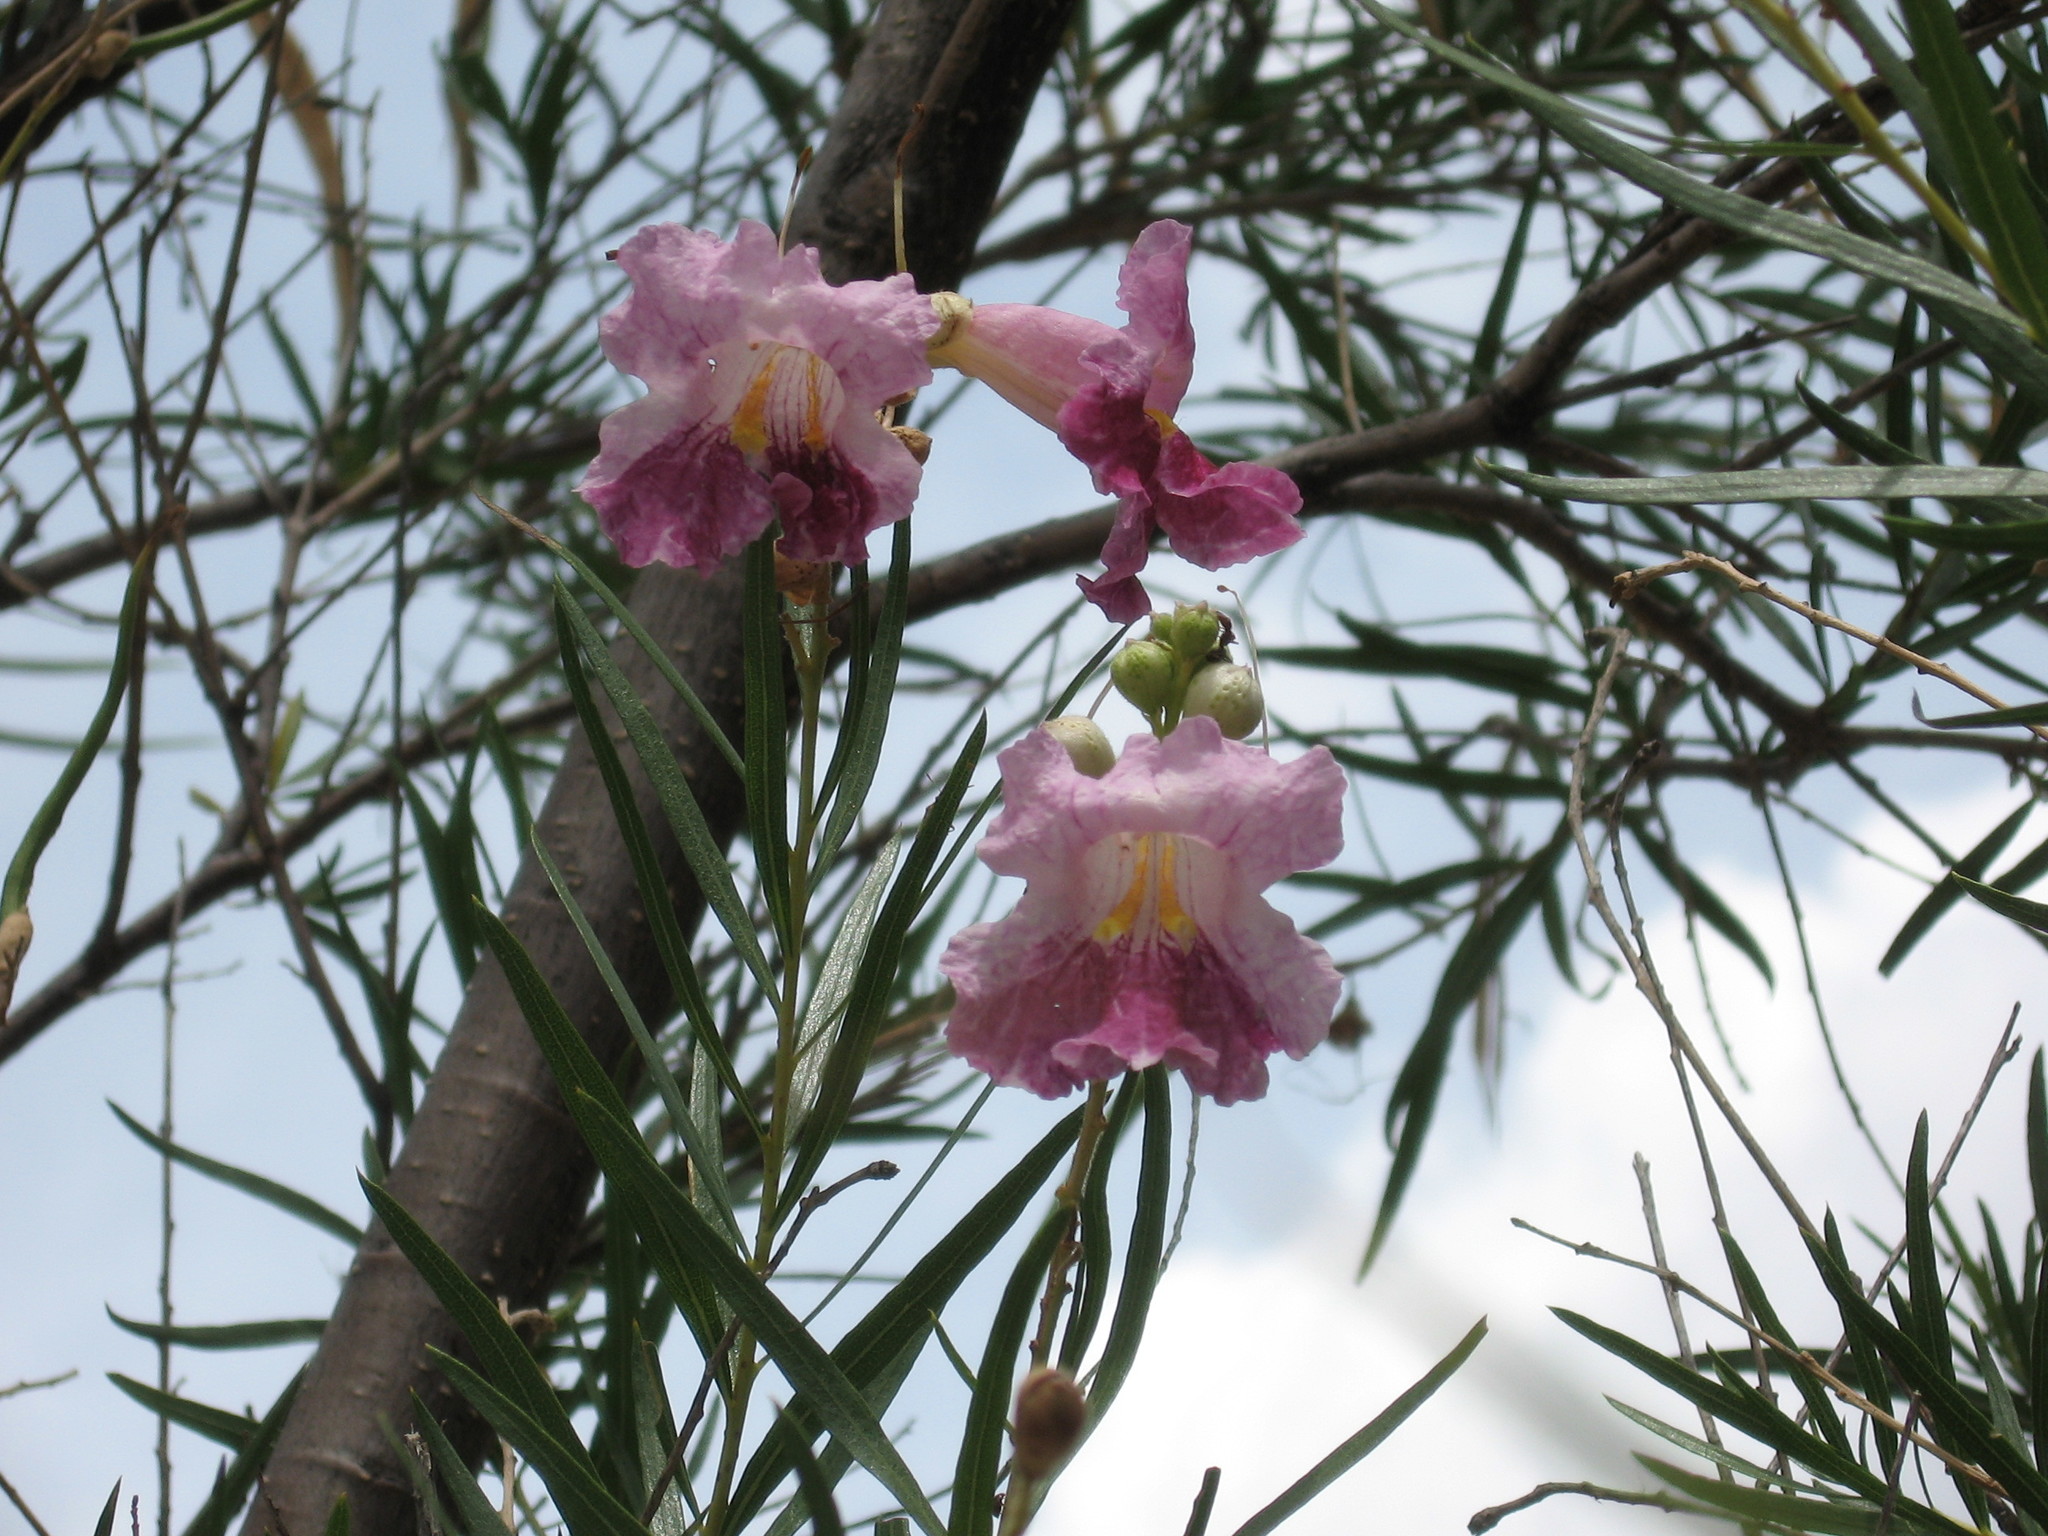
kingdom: Plantae
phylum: Tracheophyta
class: Magnoliopsida
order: Lamiales
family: Bignoniaceae
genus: Chilopsis
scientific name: Chilopsis linearis
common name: Desert-willow
